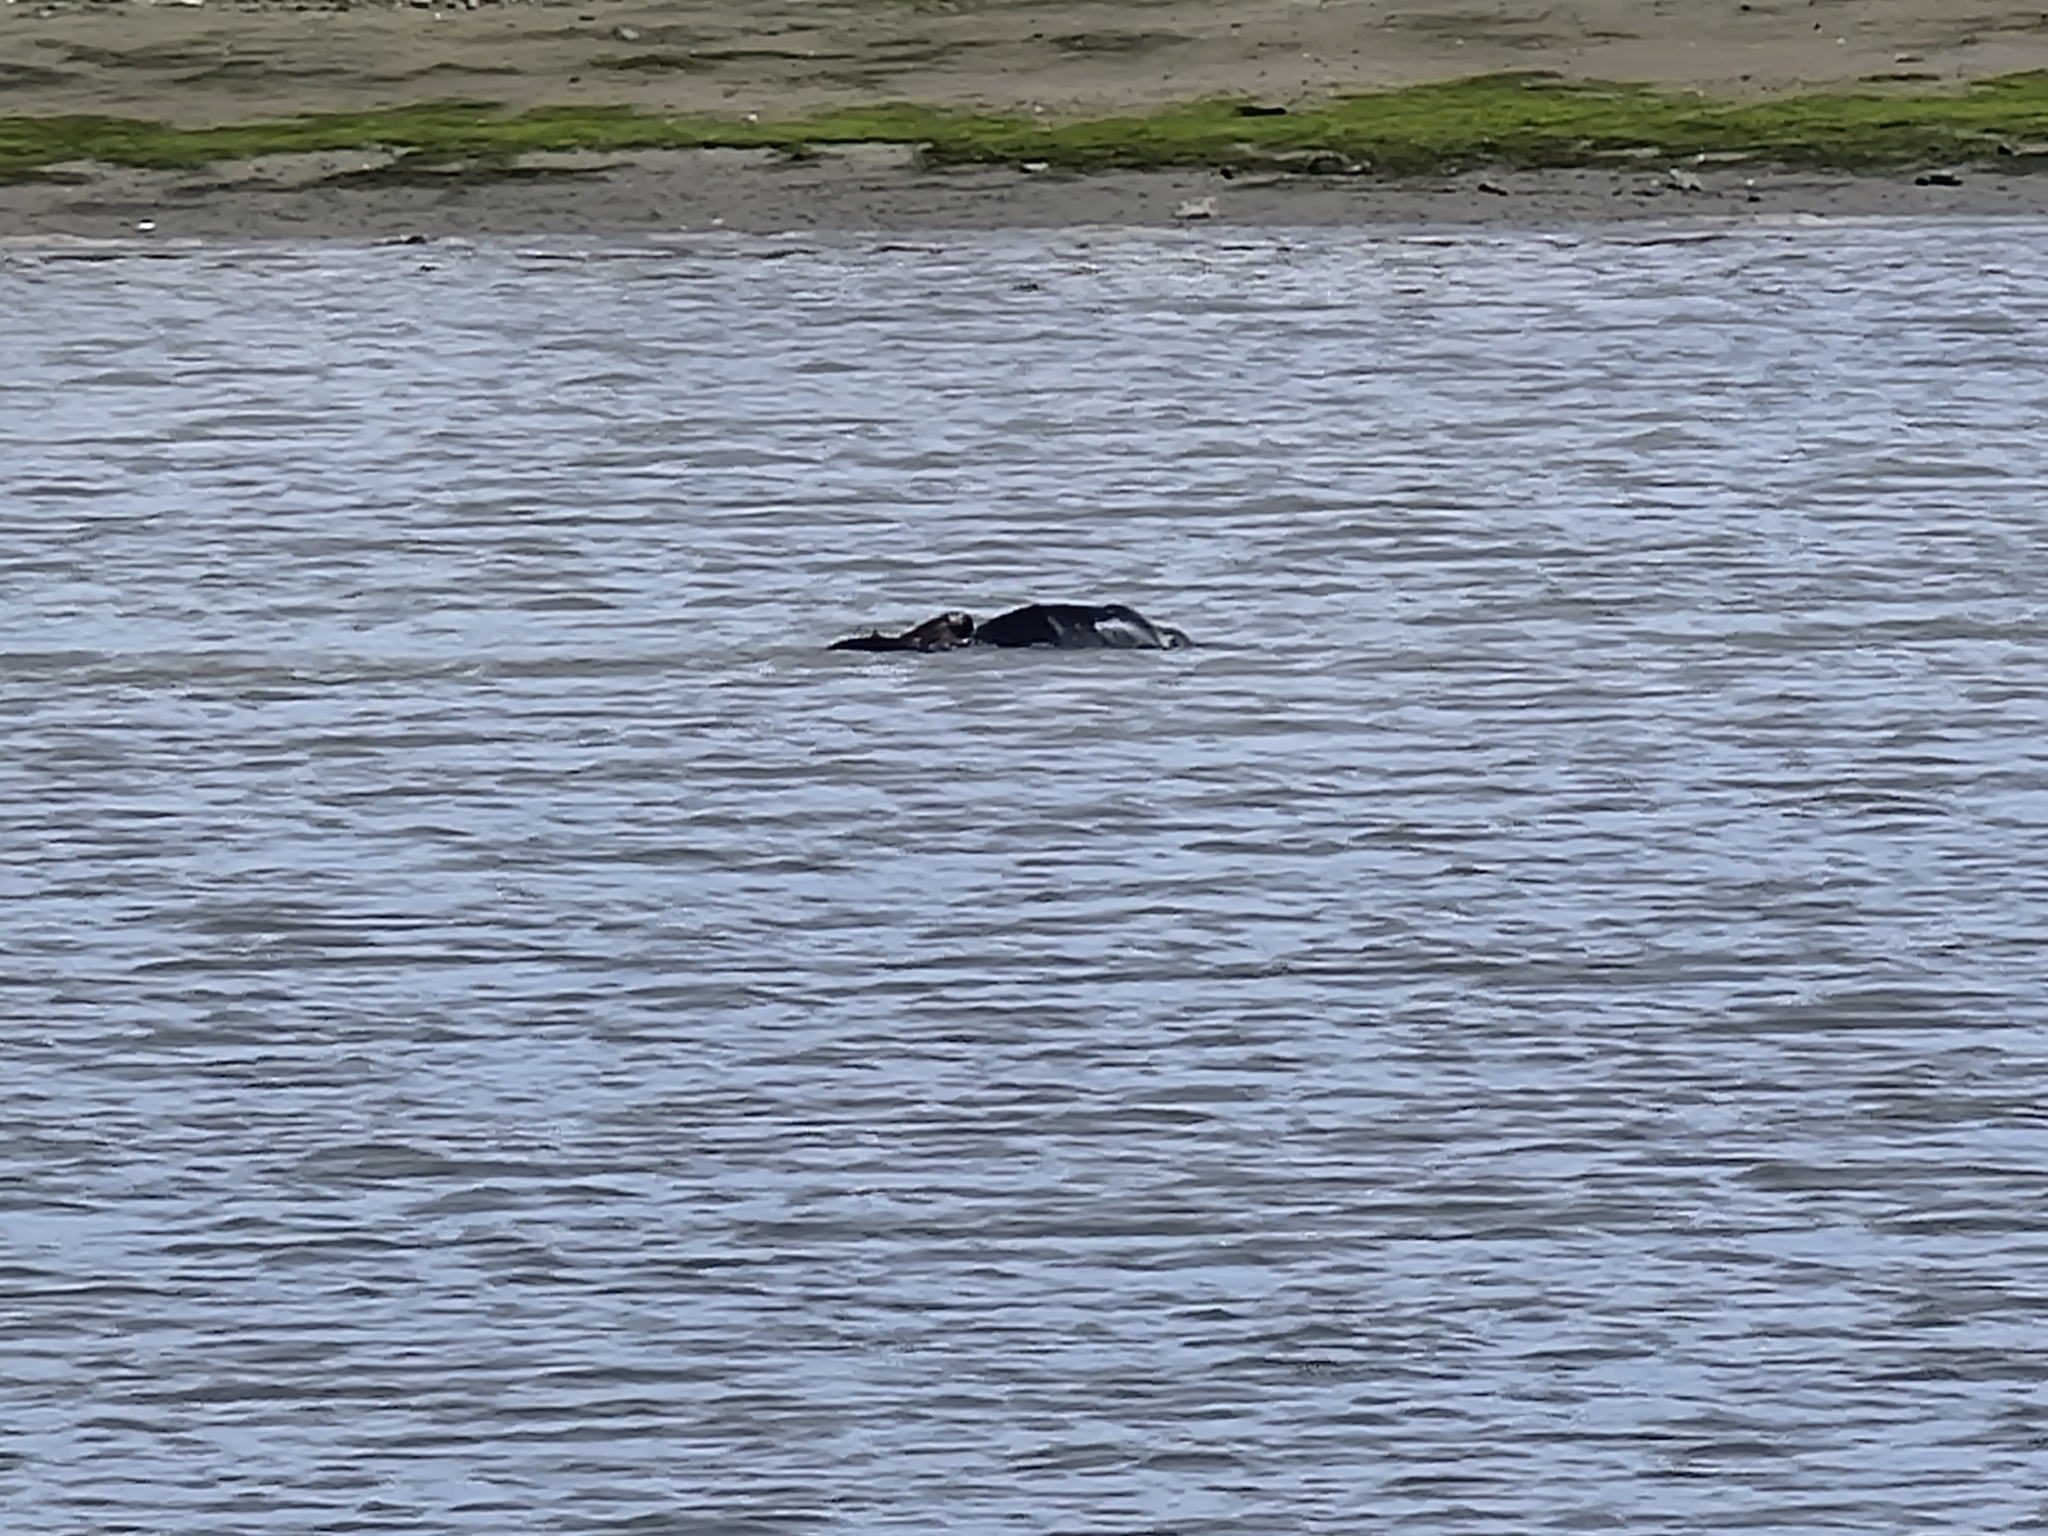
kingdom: Animalia
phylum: Chordata
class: Mammalia
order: Carnivora
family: Mustelidae
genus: Enhydra
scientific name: Enhydra lutris
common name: Sea otter
